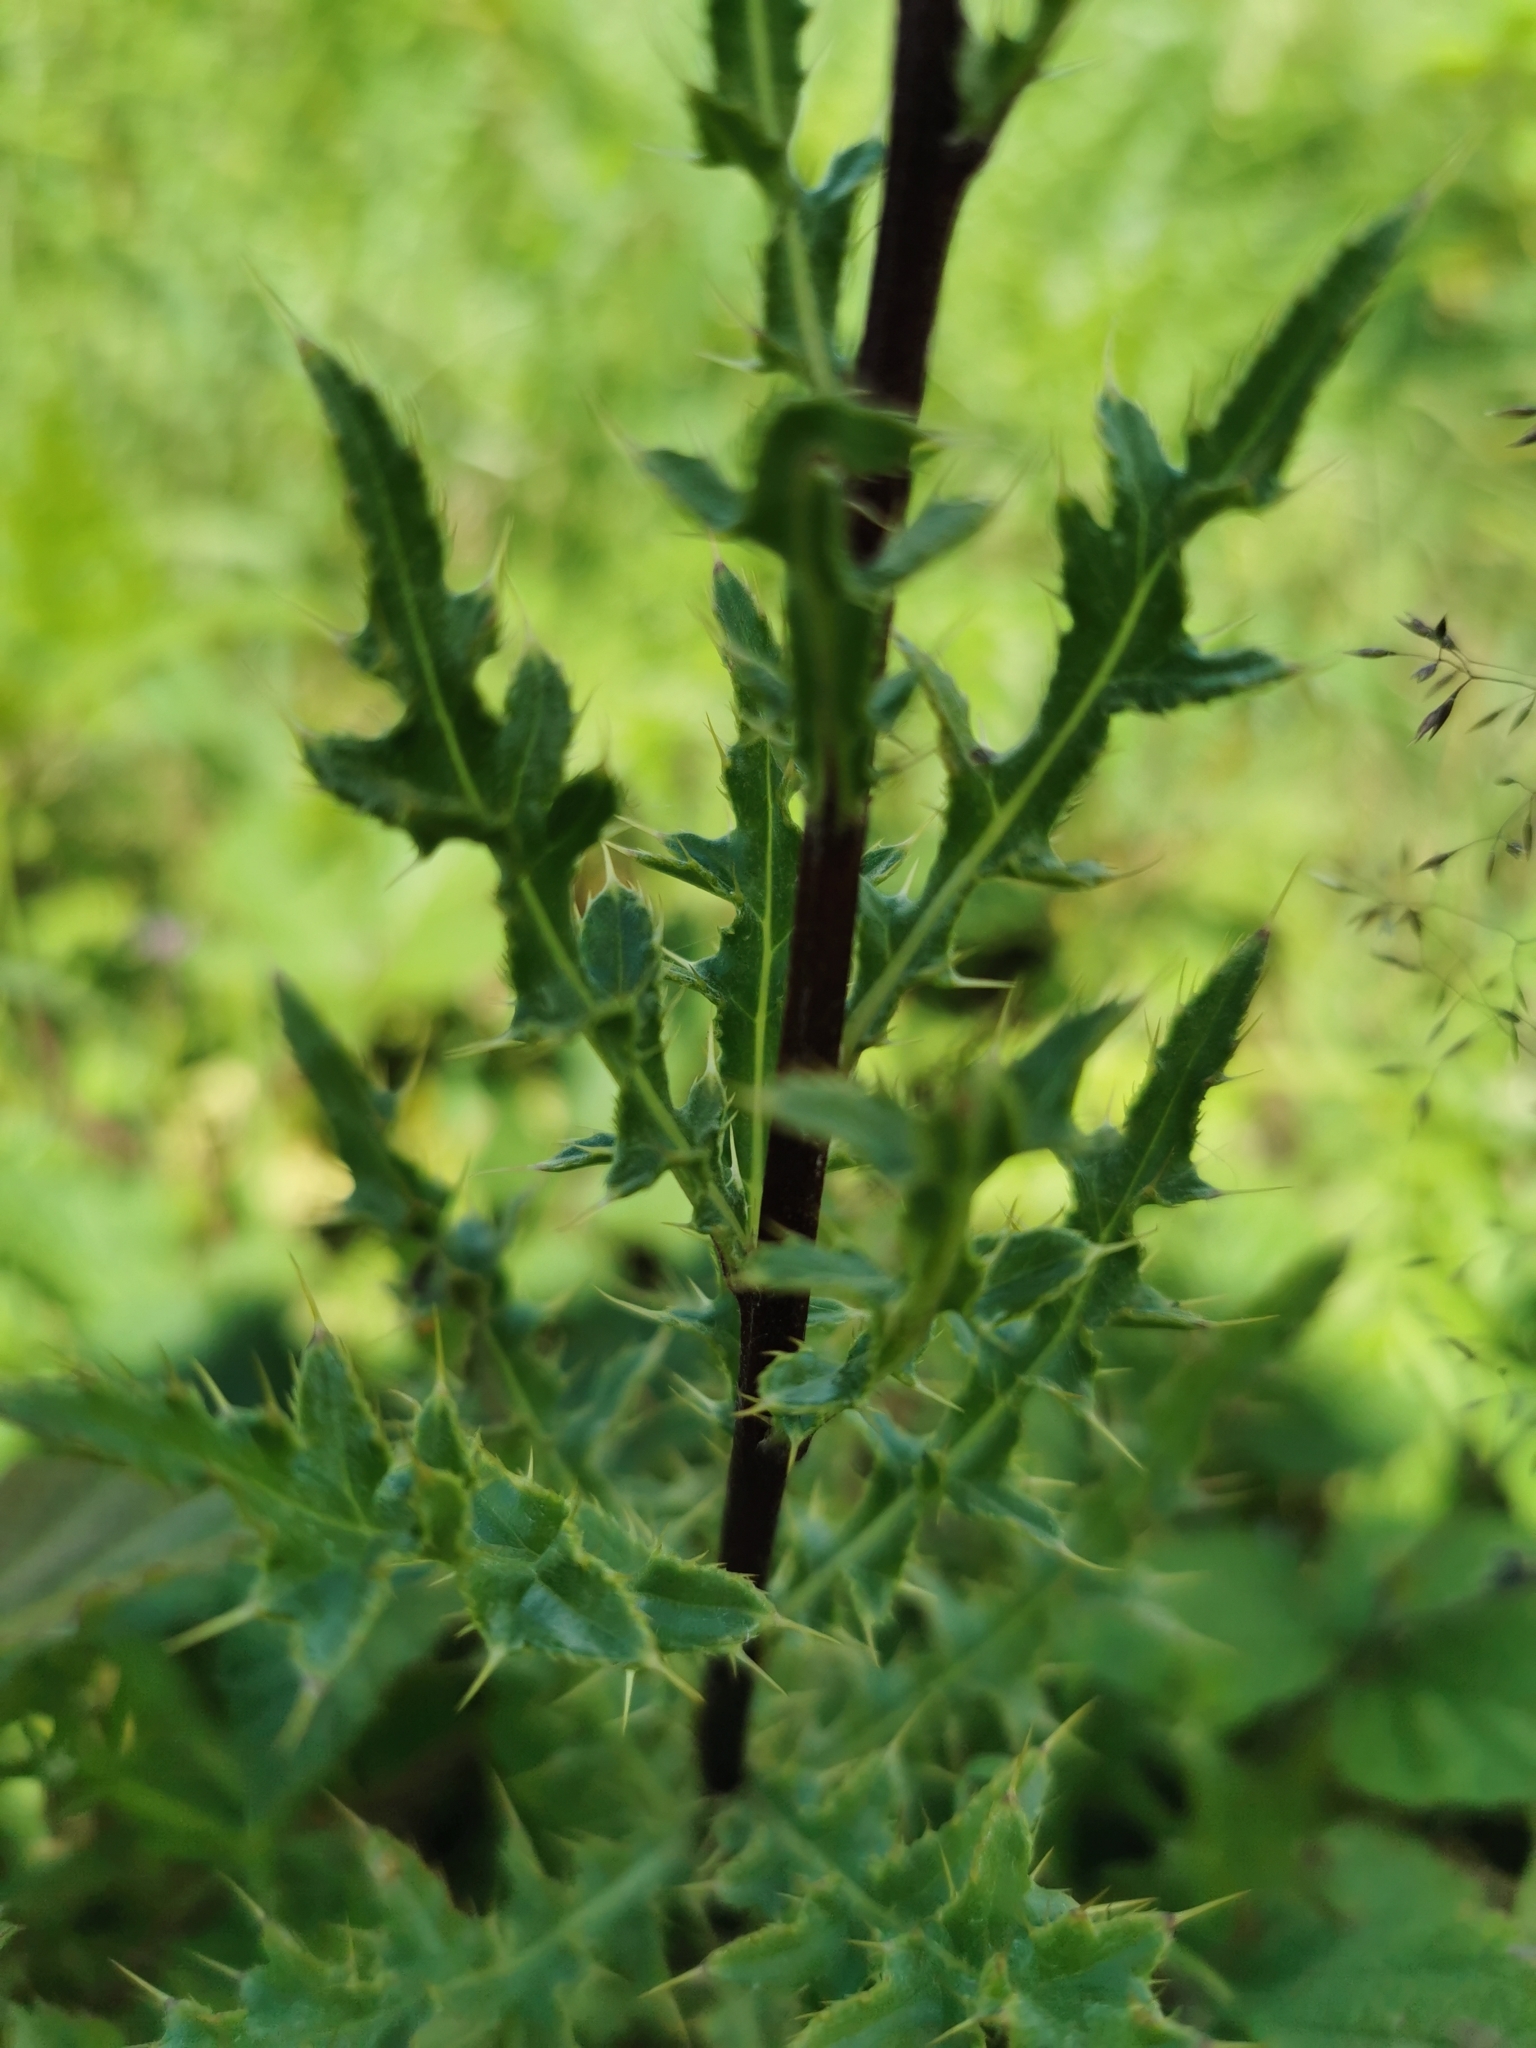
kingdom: Plantae
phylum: Tracheophyta
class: Magnoliopsida
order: Asterales
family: Asteraceae
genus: Cirsium
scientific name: Cirsium arvense
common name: Creeping thistle
